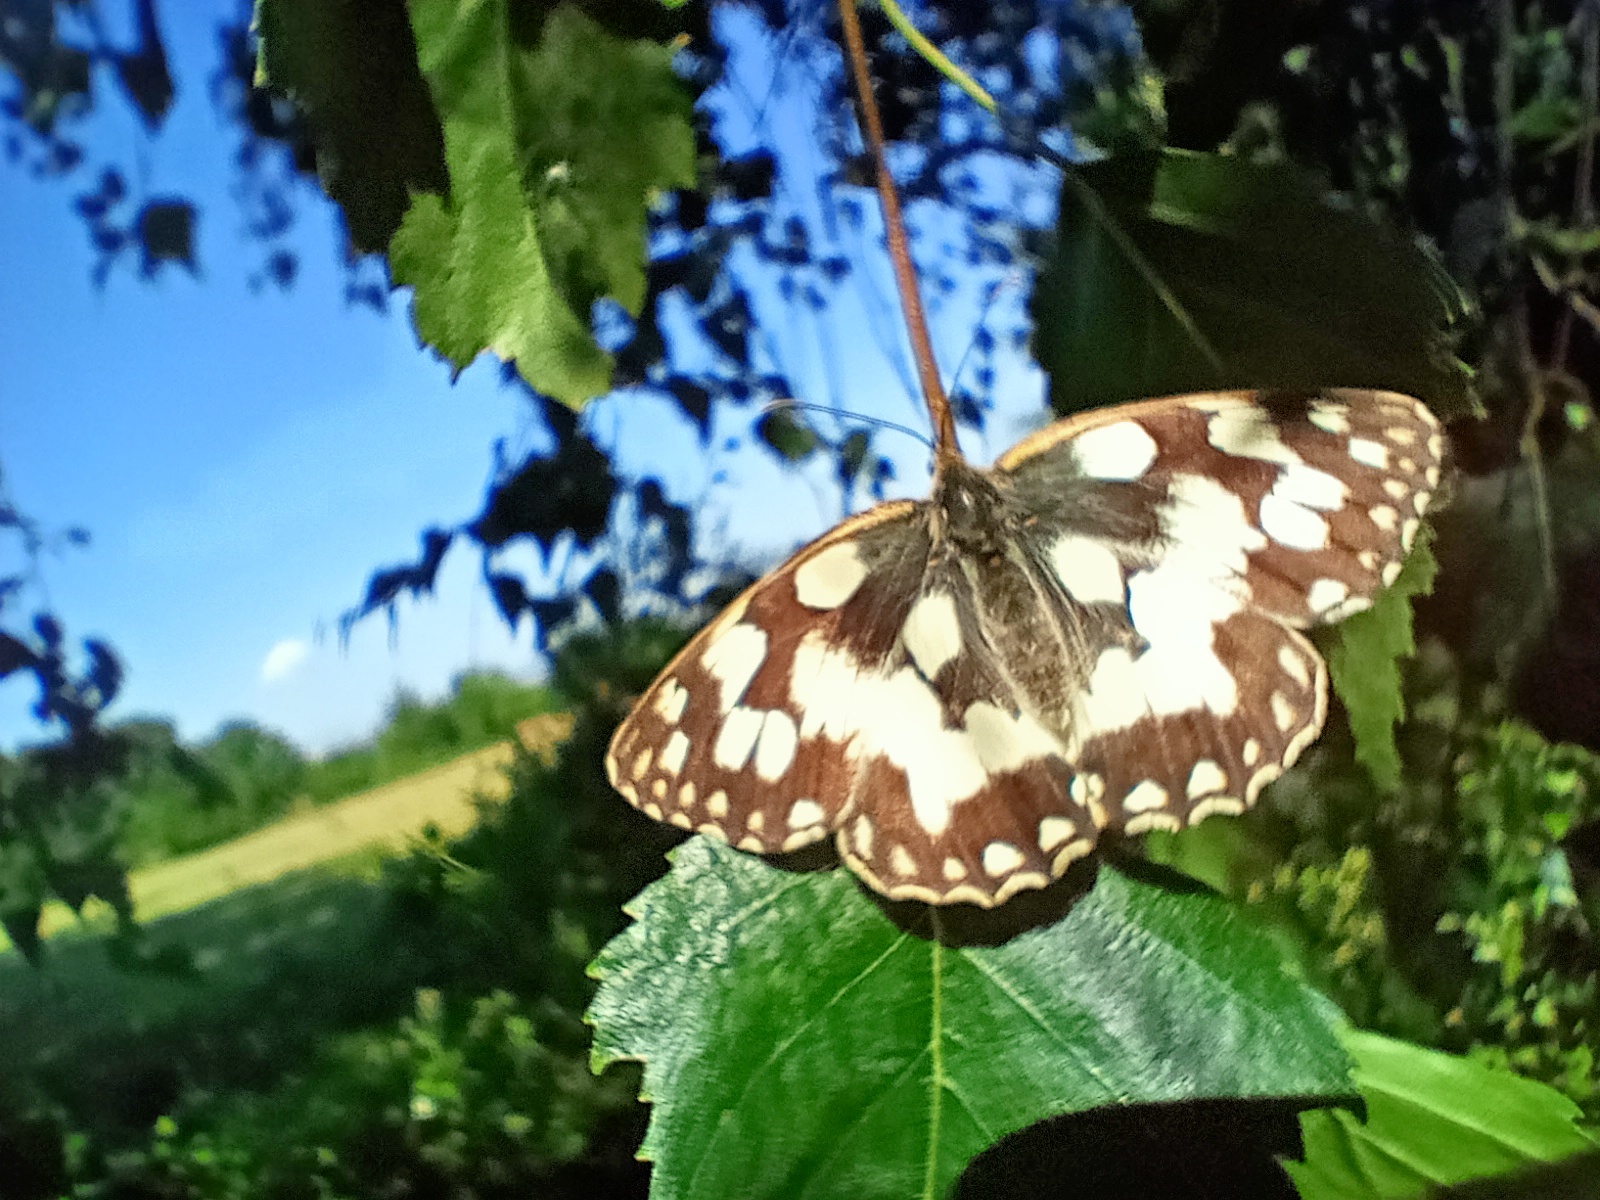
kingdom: Animalia
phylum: Arthropoda
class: Insecta
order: Lepidoptera
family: Nymphalidae
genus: Melanargia
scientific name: Melanargia galathea
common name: Marbled white
